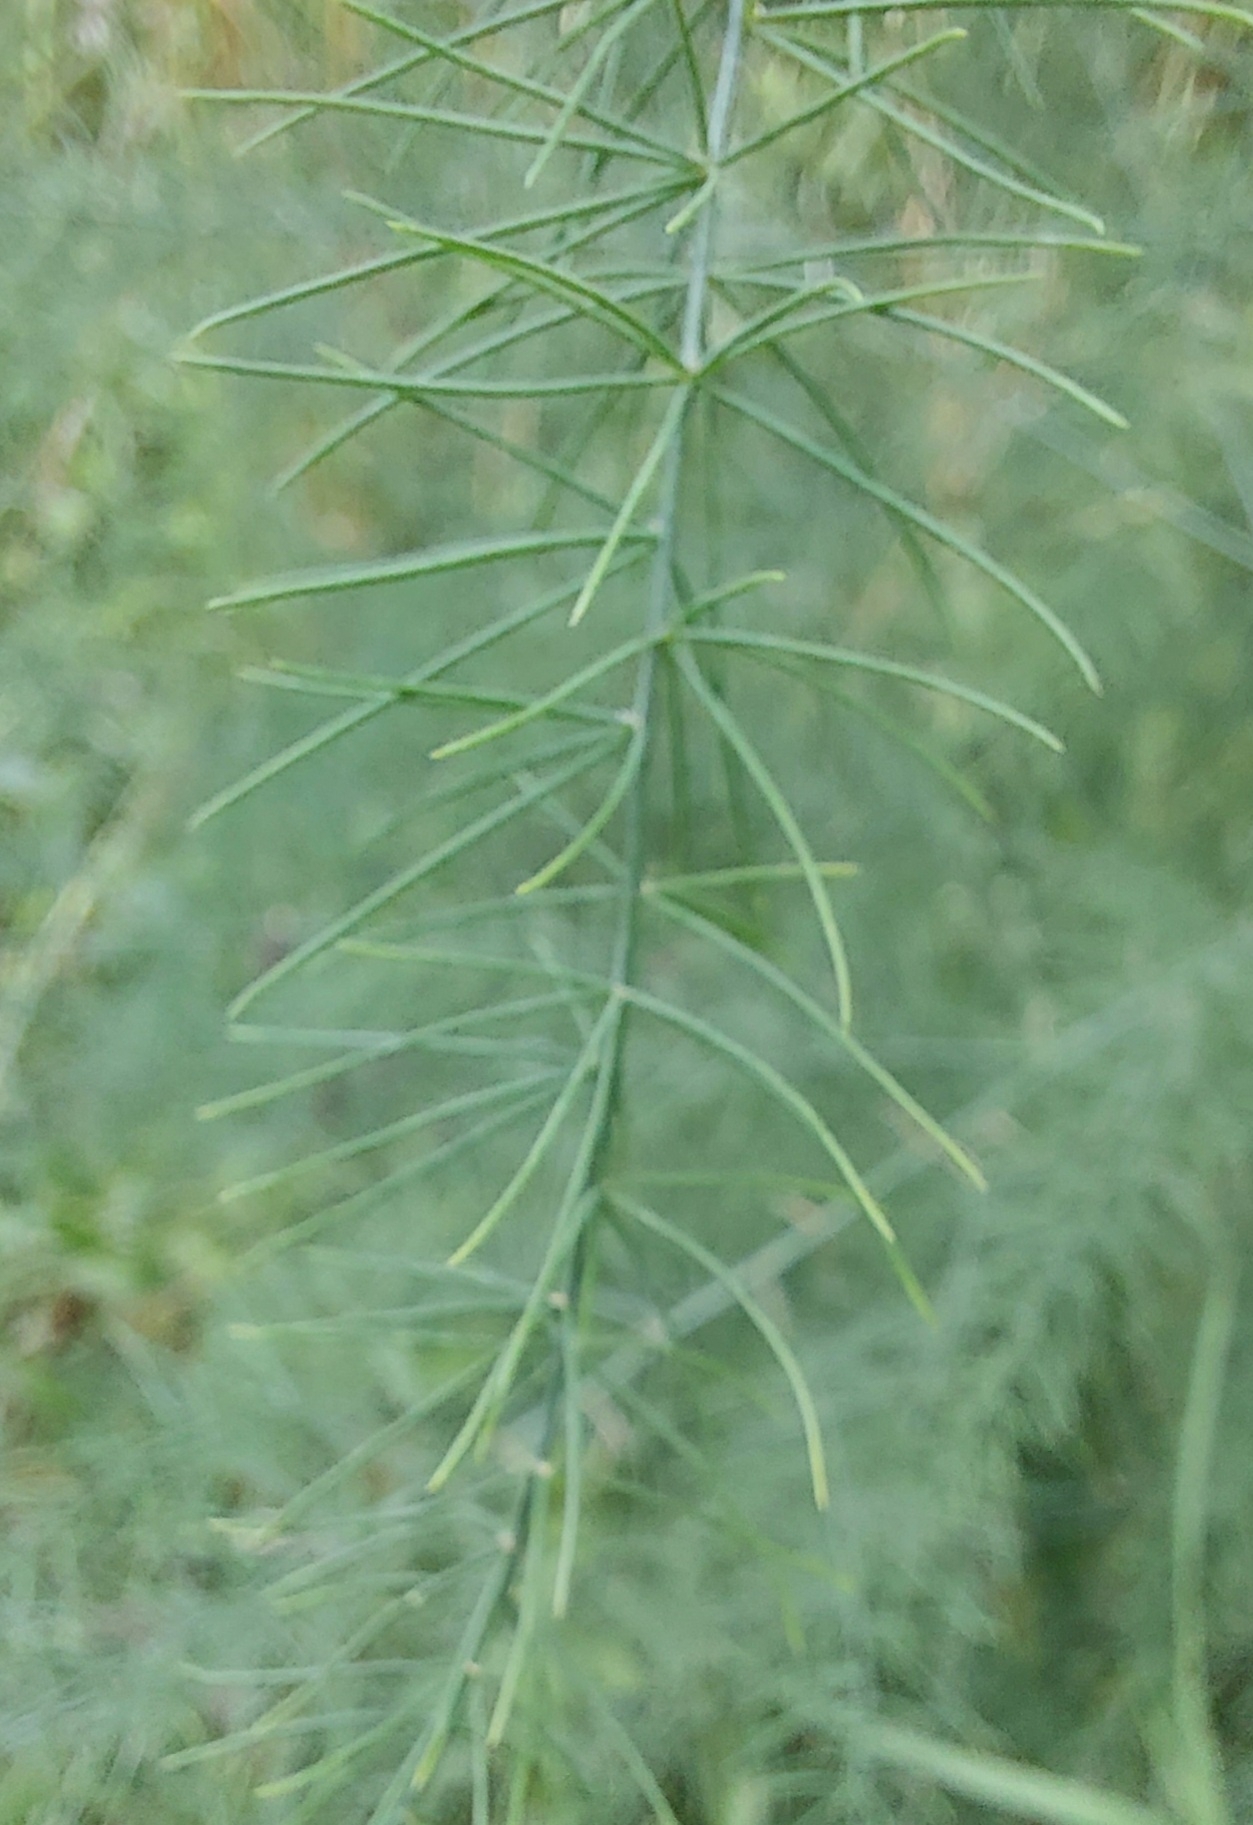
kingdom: Plantae
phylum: Tracheophyta
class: Liliopsida
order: Asparagales
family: Asparagaceae
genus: Asparagus
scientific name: Asparagus officinalis
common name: Garden asparagus
